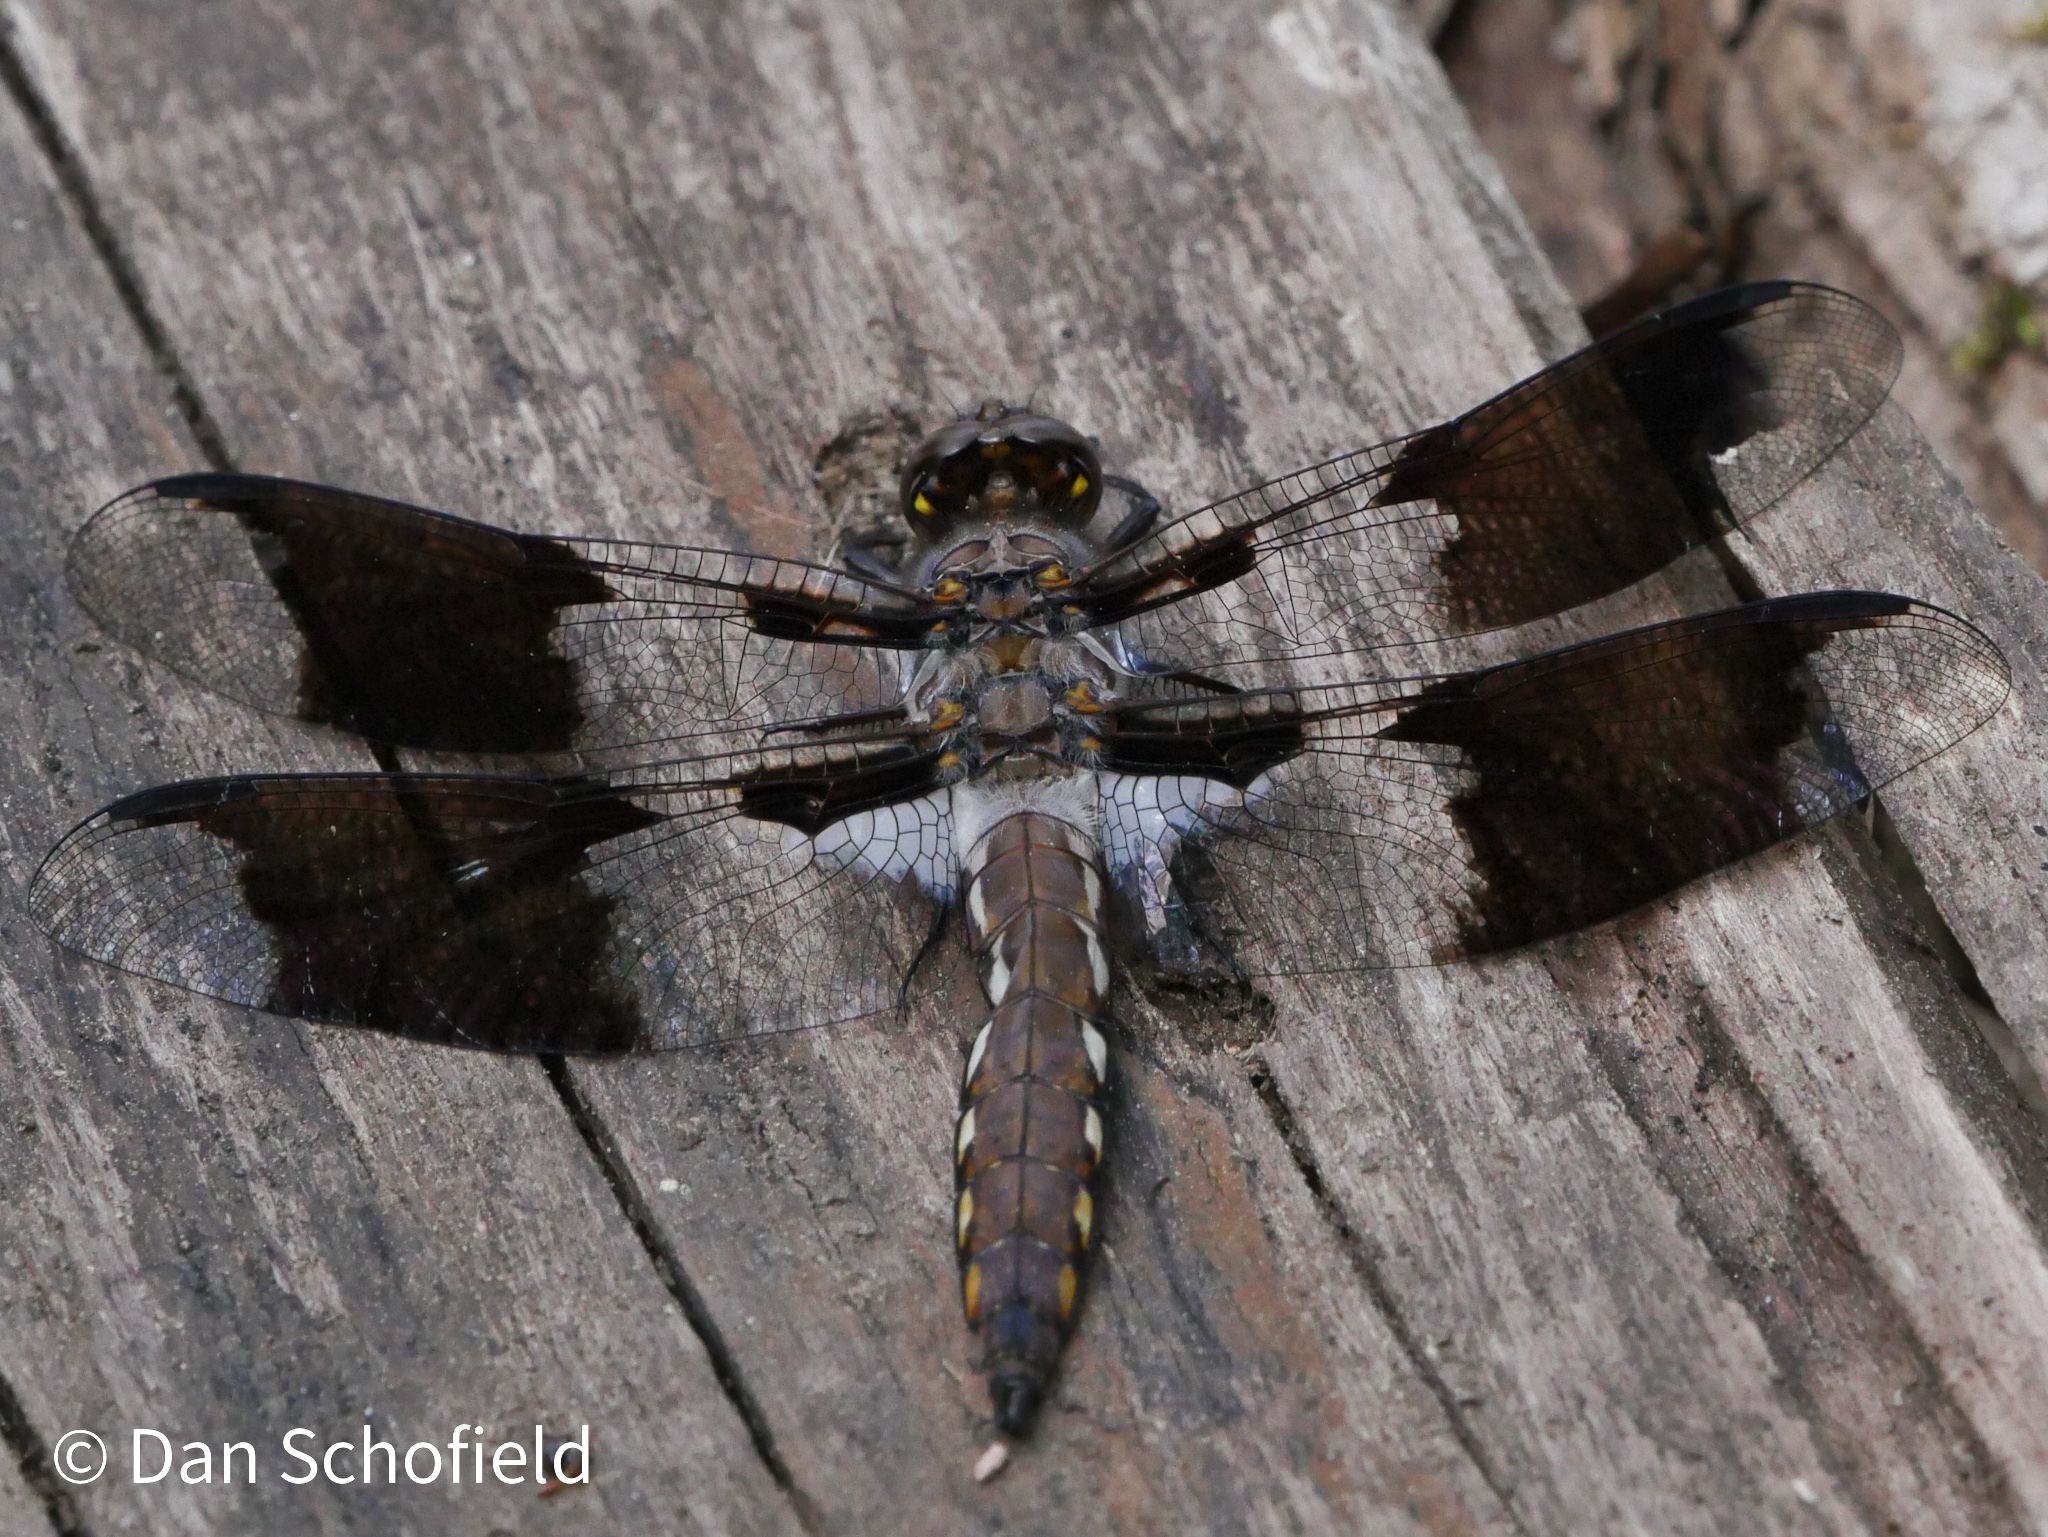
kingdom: Animalia
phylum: Arthropoda
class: Insecta
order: Odonata
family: Libellulidae
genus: Plathemis
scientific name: Plathemis lydia
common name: Common whitetail
